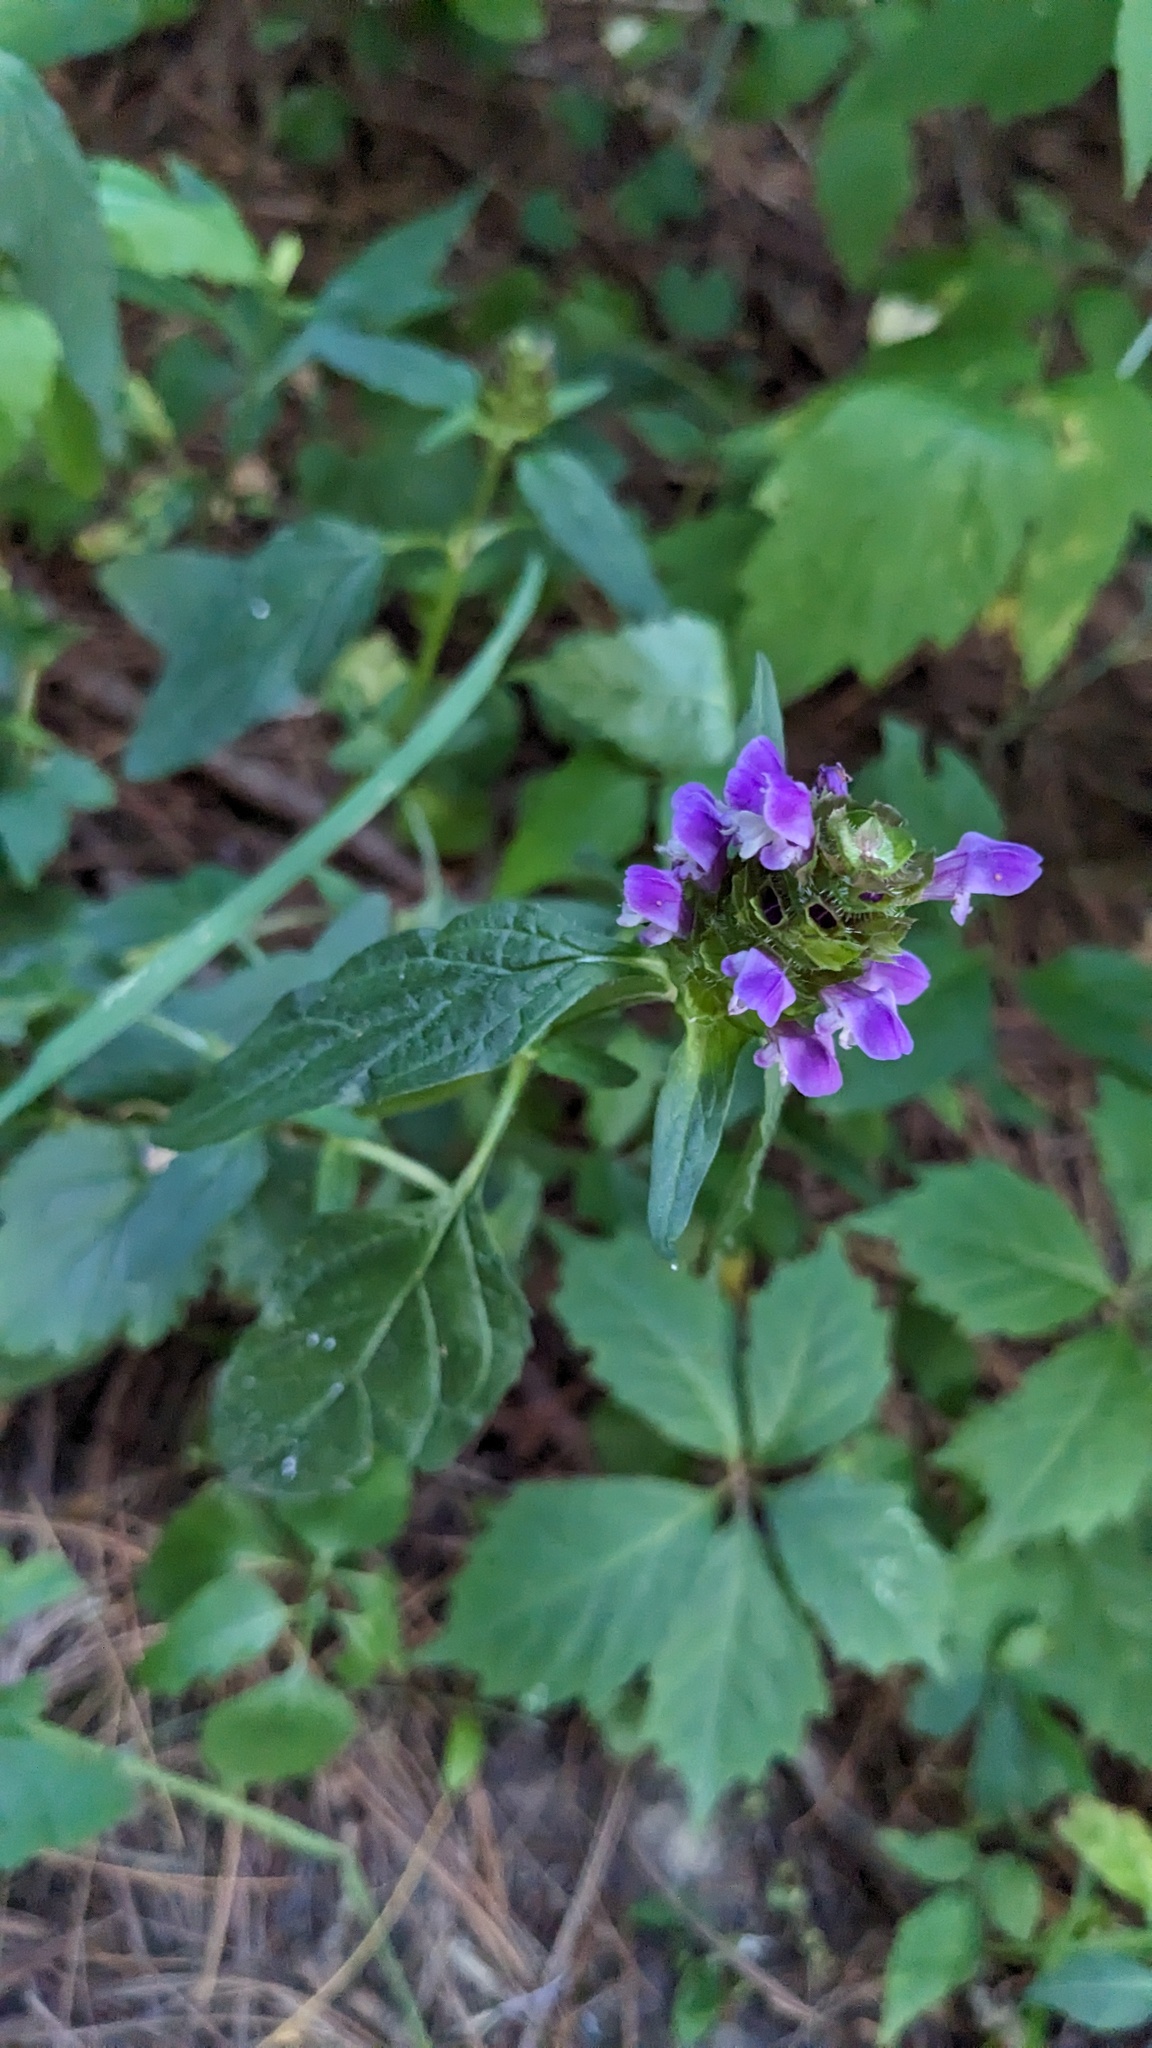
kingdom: Plantae
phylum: Tracheophyta
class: Magnoliopsida
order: Lamiales
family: Lamiaceae
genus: Prunella
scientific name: Prunella vulgaris
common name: Heal-all
